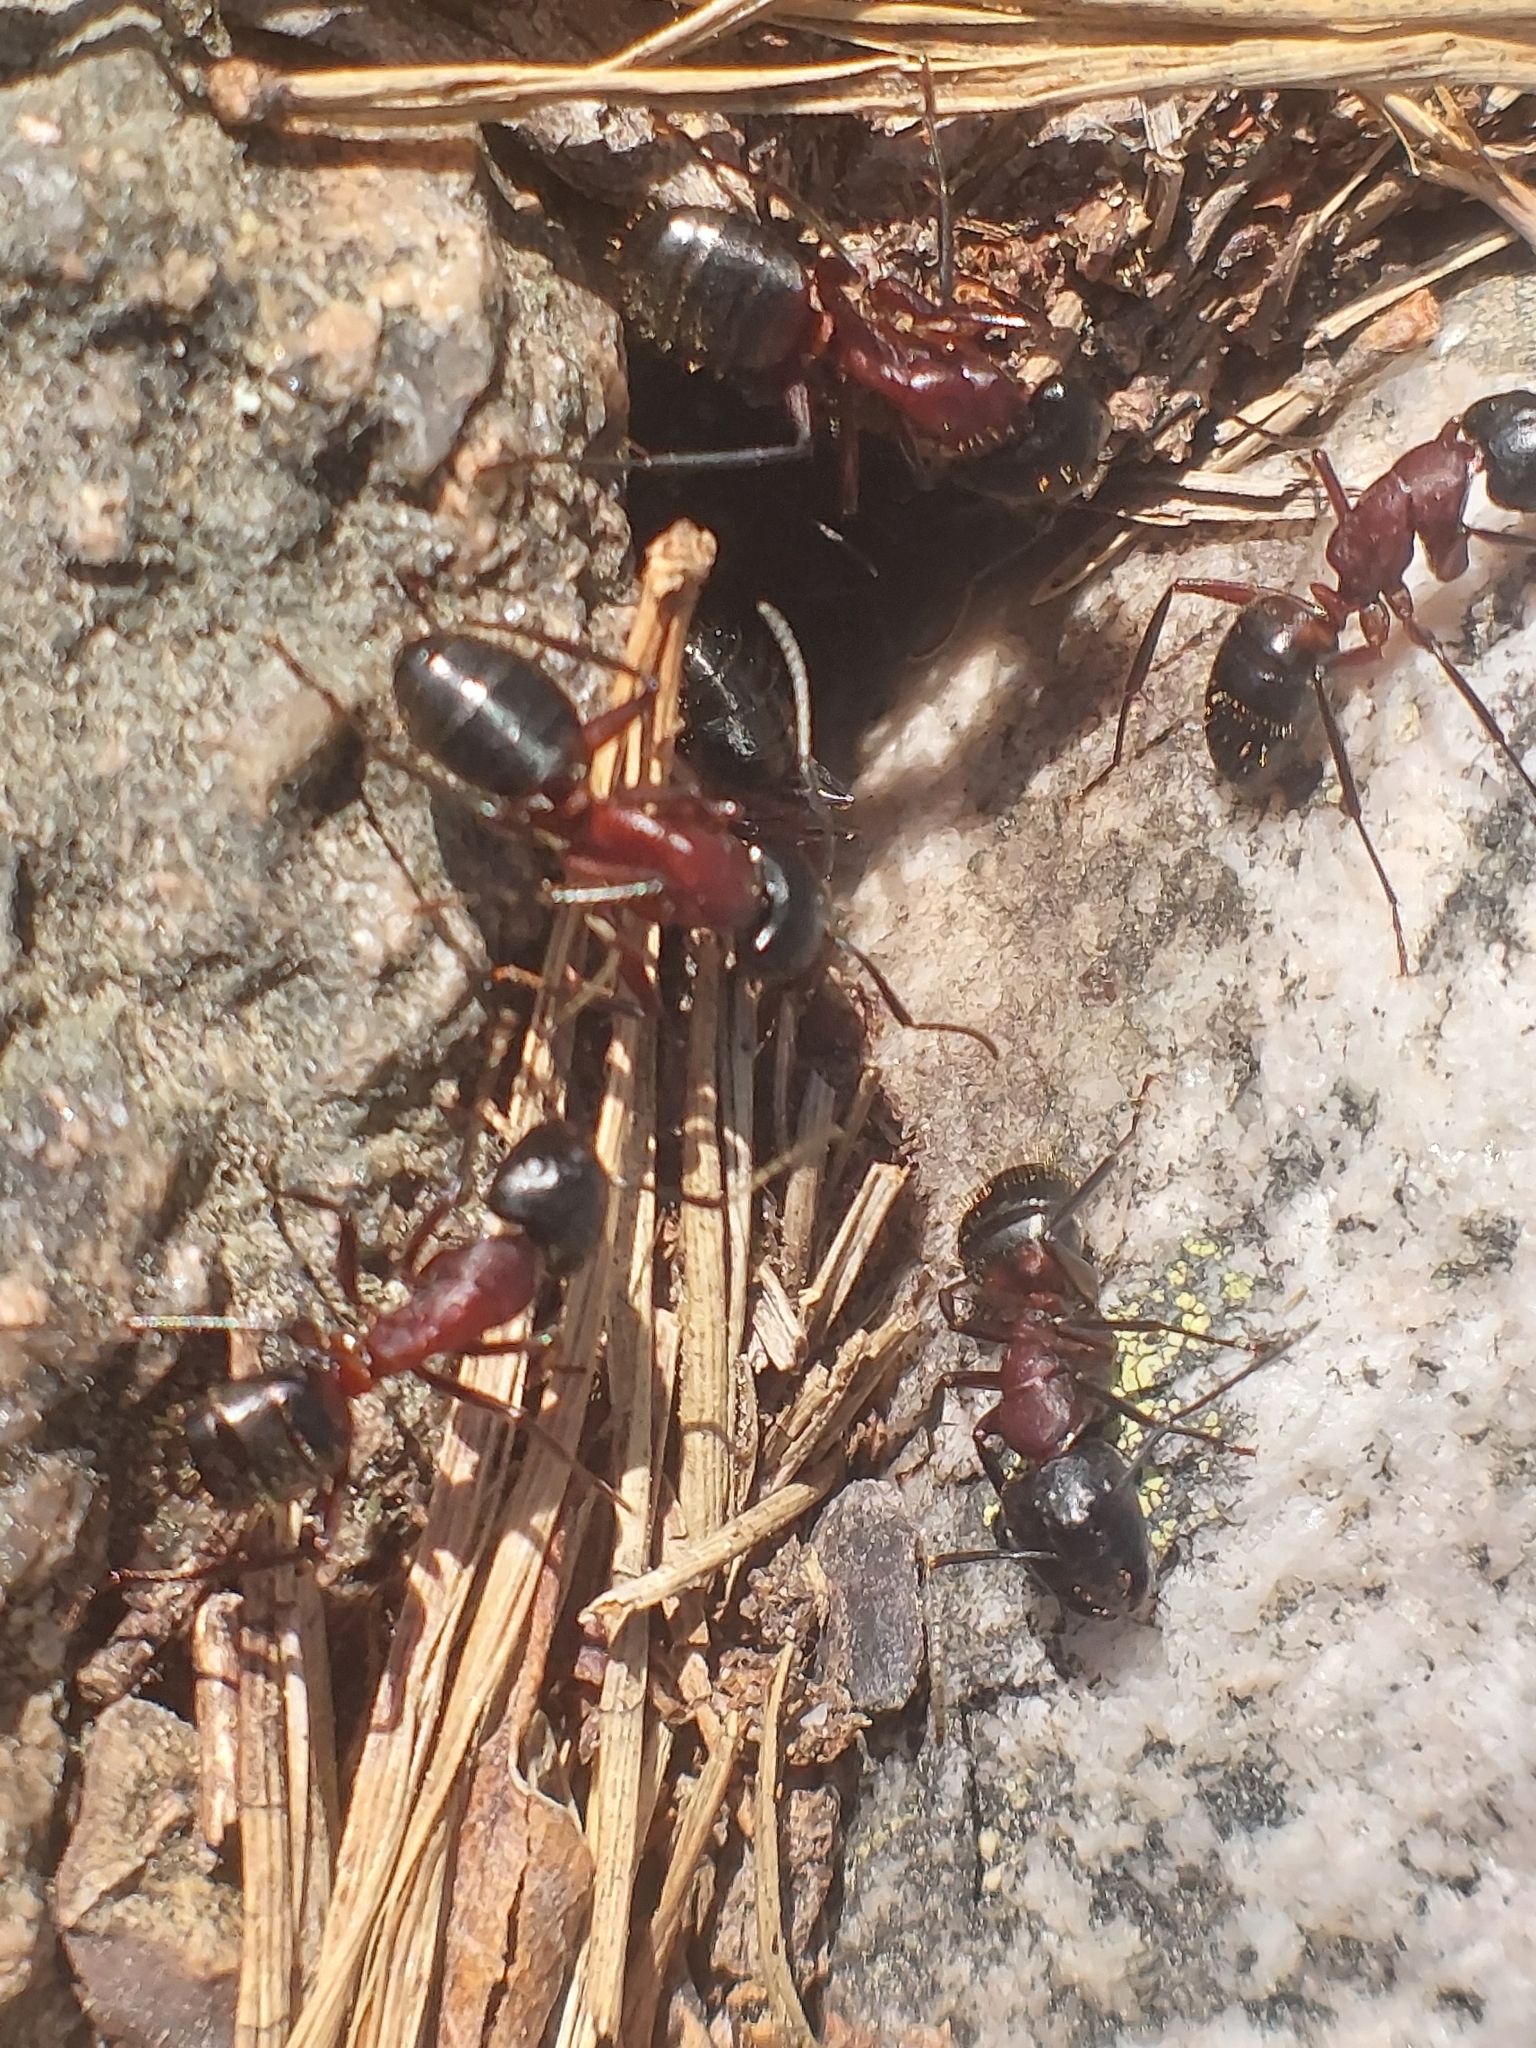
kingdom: Animalia
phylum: Arthropoda
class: Insecta
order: Hymenoptera
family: Formicidae
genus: Camponotus
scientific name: Camponotus ligniperdus
